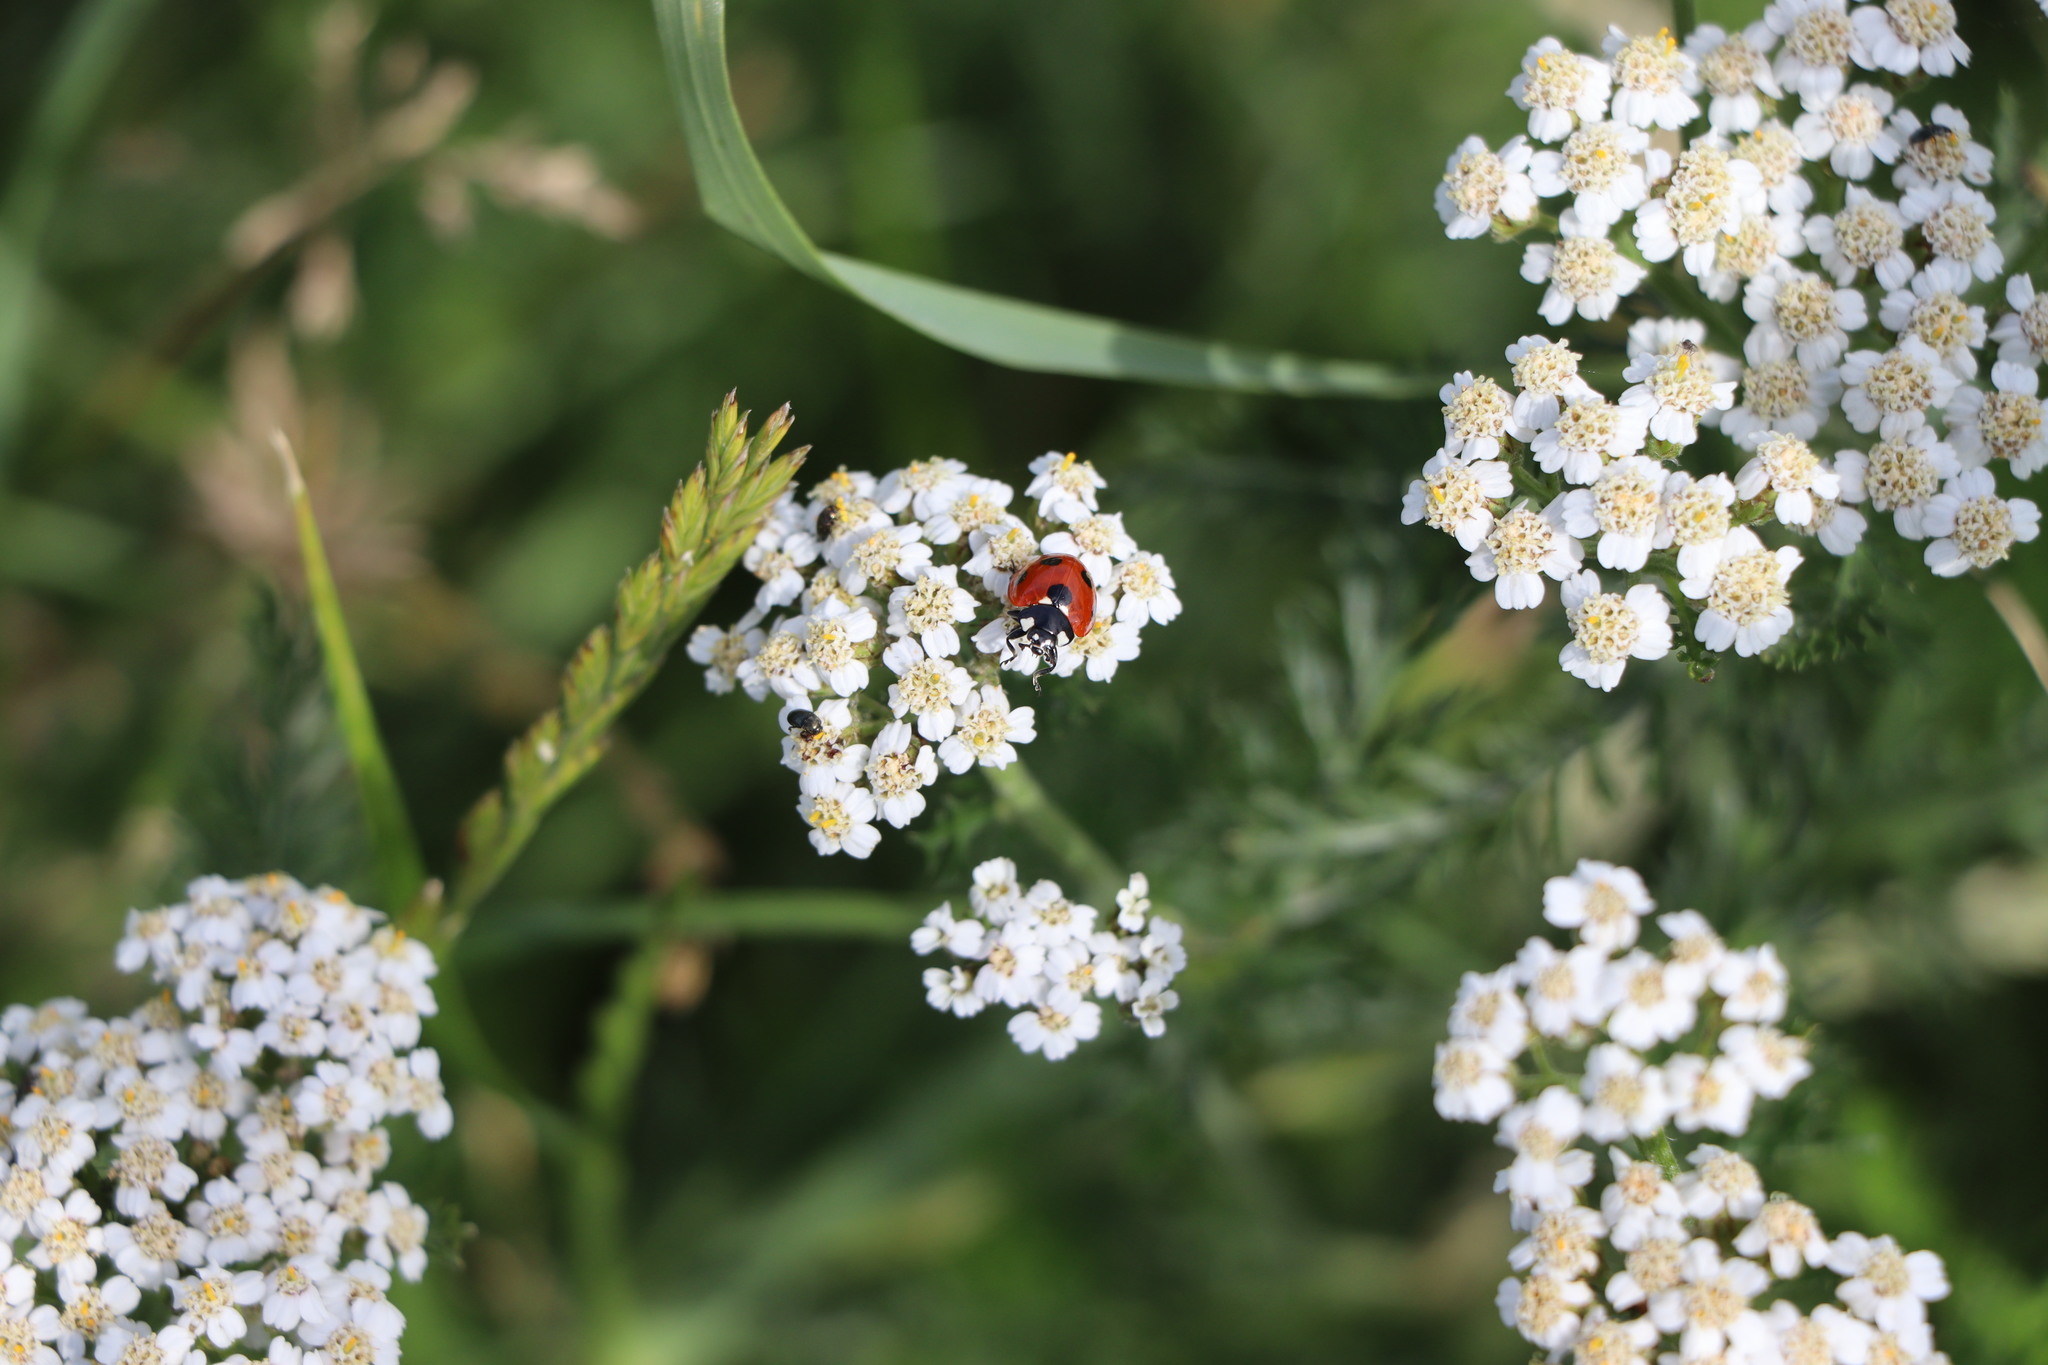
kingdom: Animalia
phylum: Arthropoda
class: Insecta
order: Coleoptera
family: Coccinellidae
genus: Coccinella
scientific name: Coccinella septempunctata
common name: Sevenspotted lady beetle
